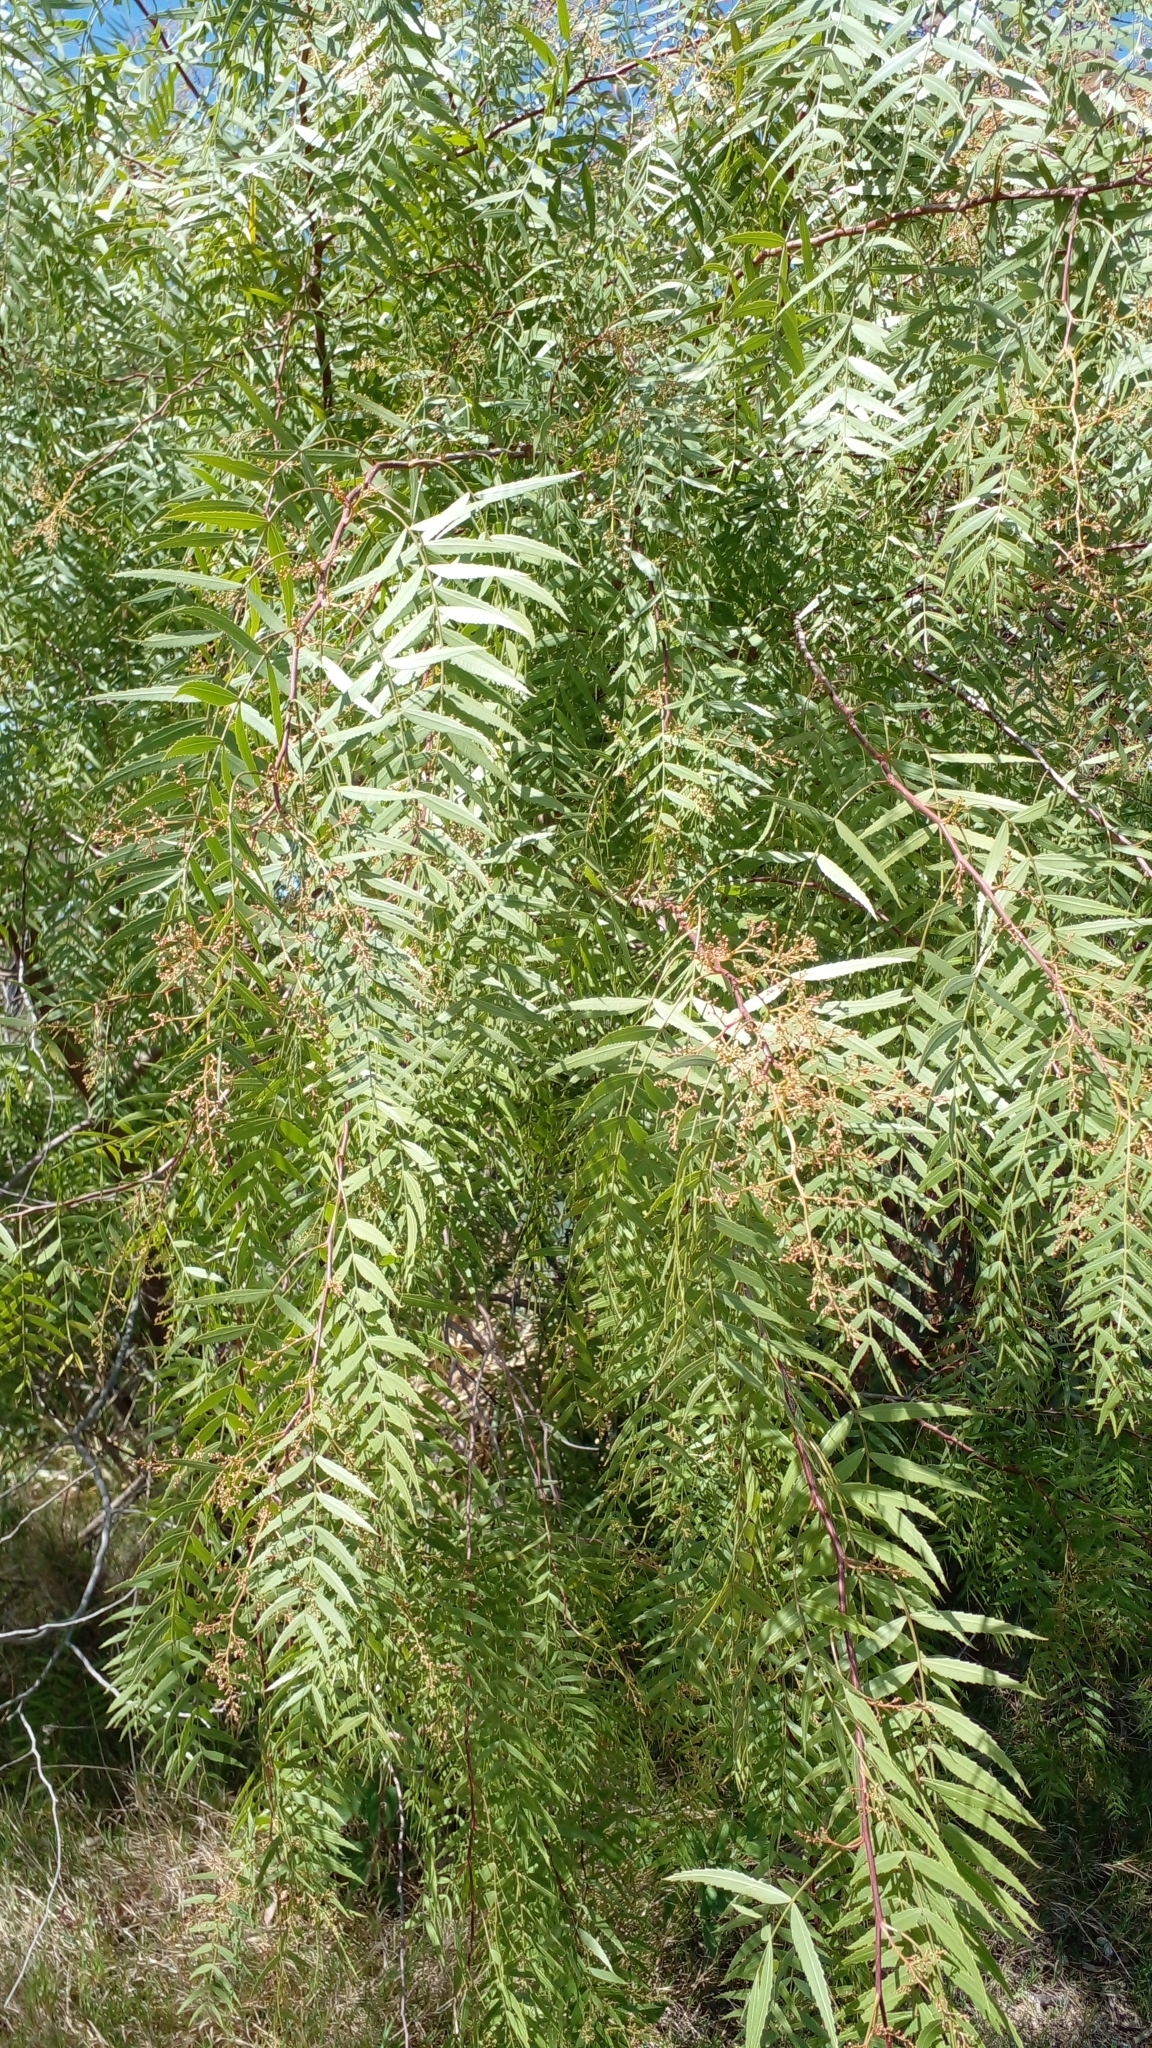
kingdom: Plantae
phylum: Tracheophyta
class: Magnoliopsida
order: Sapindales
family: Anacardiaceae
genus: Schinus
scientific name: Schinus molle
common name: Peruvian peppertree
